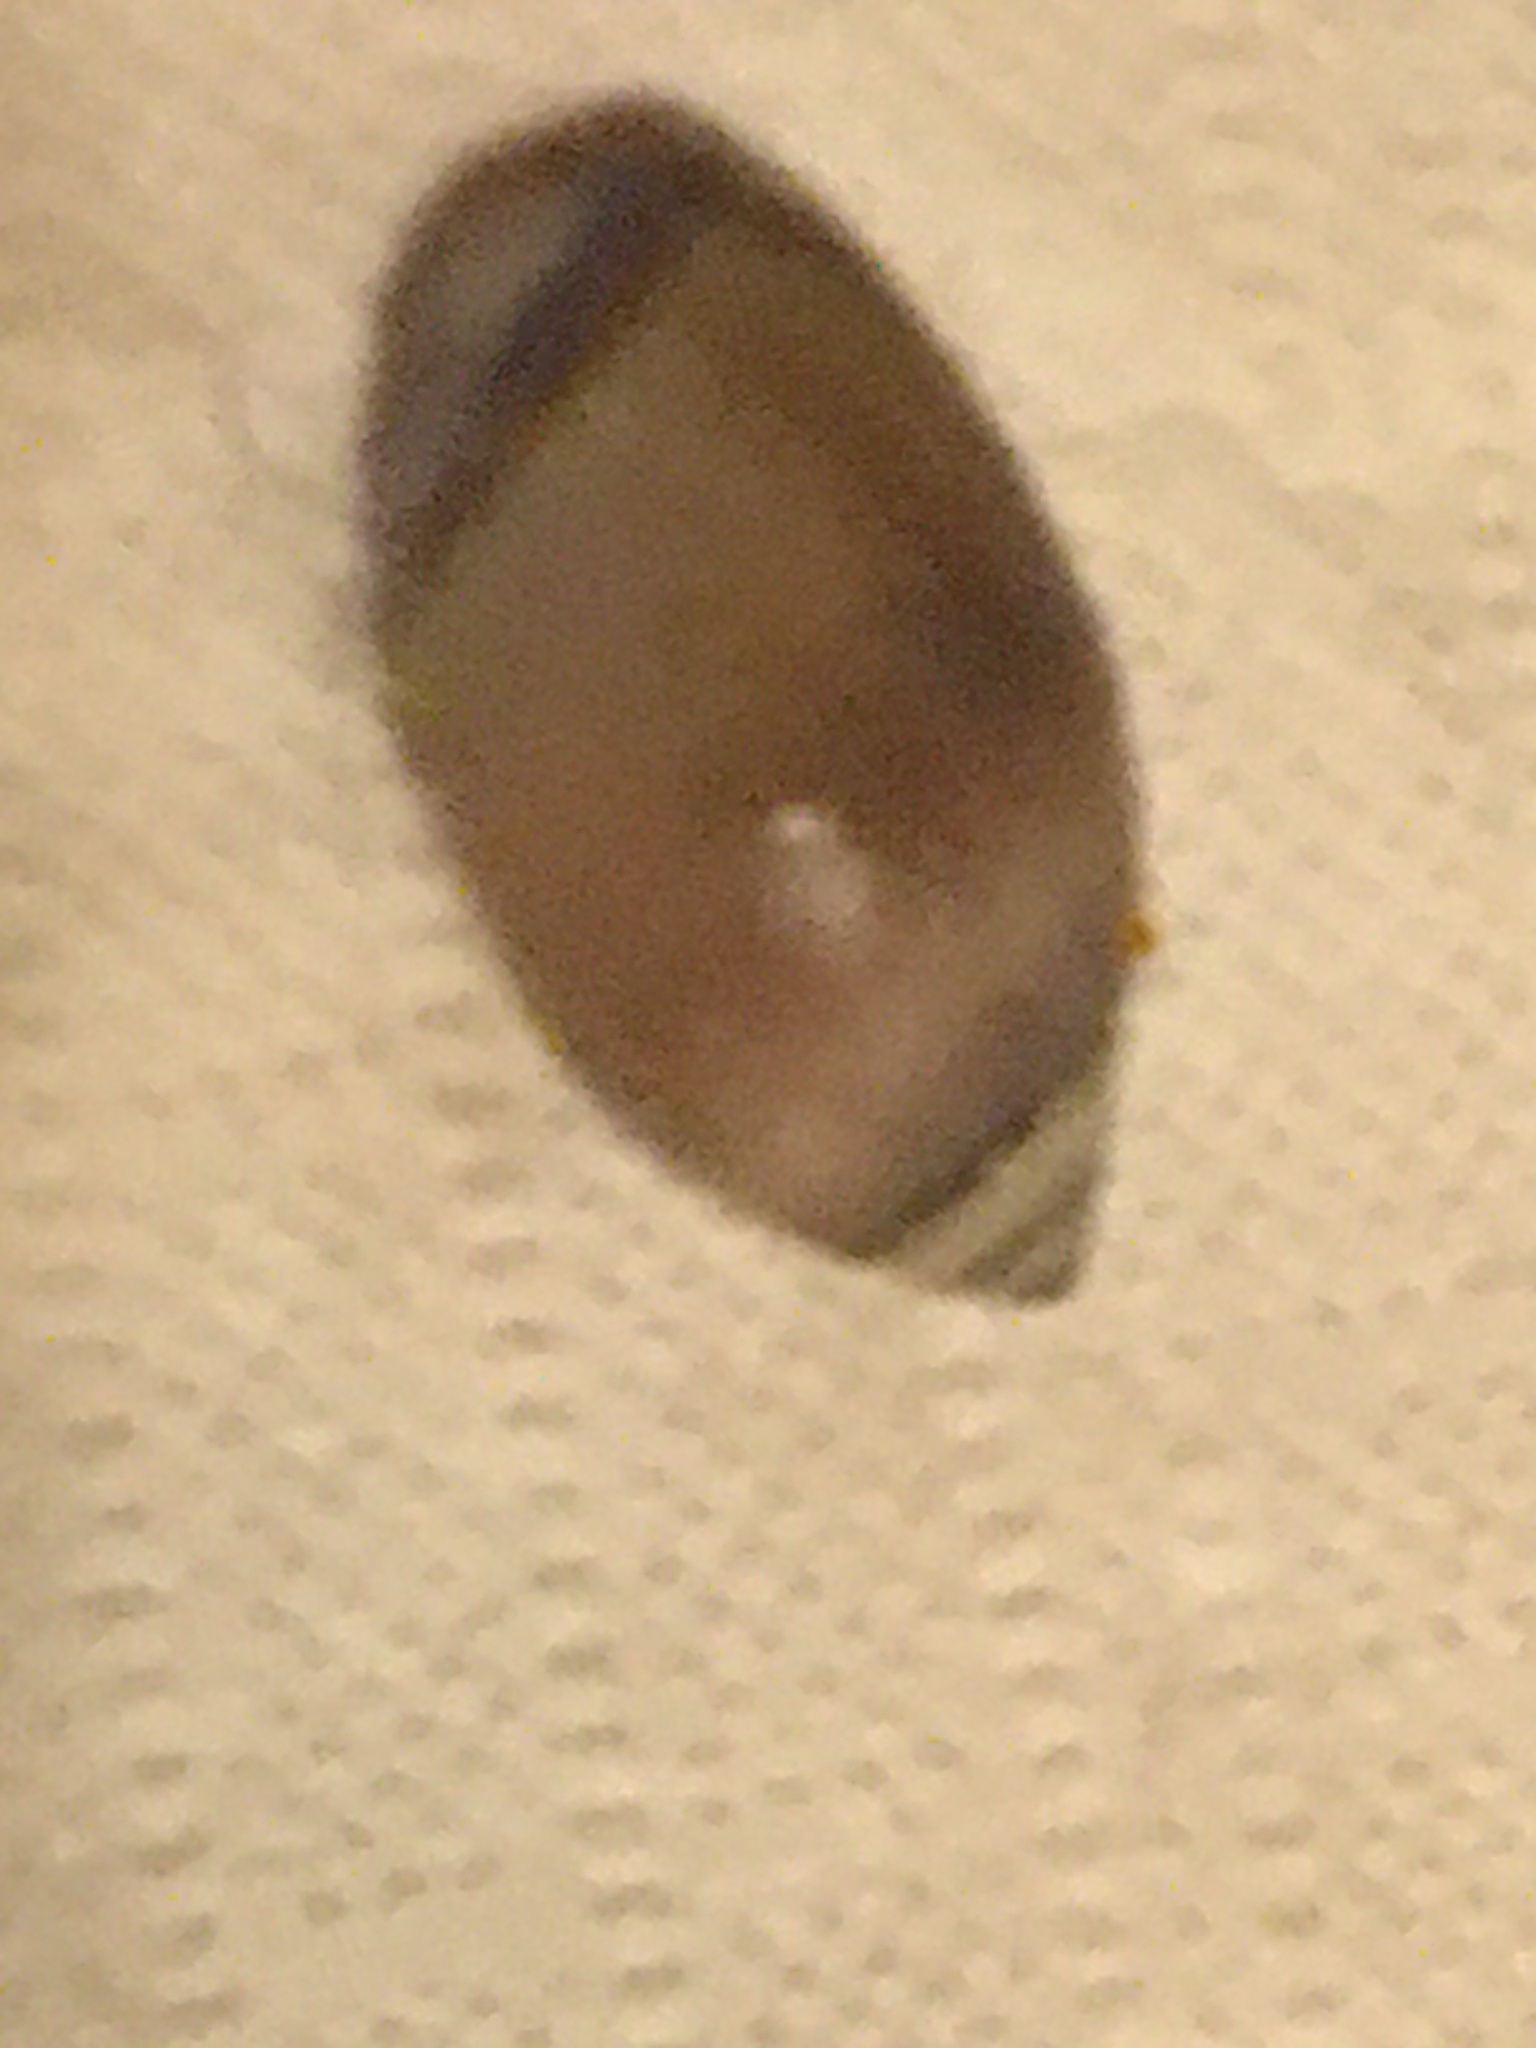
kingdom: Animalia
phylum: Mollusca
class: Gastropoda
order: Neogastropoda
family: Olividae
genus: Callianax
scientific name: Callianax biplicata
